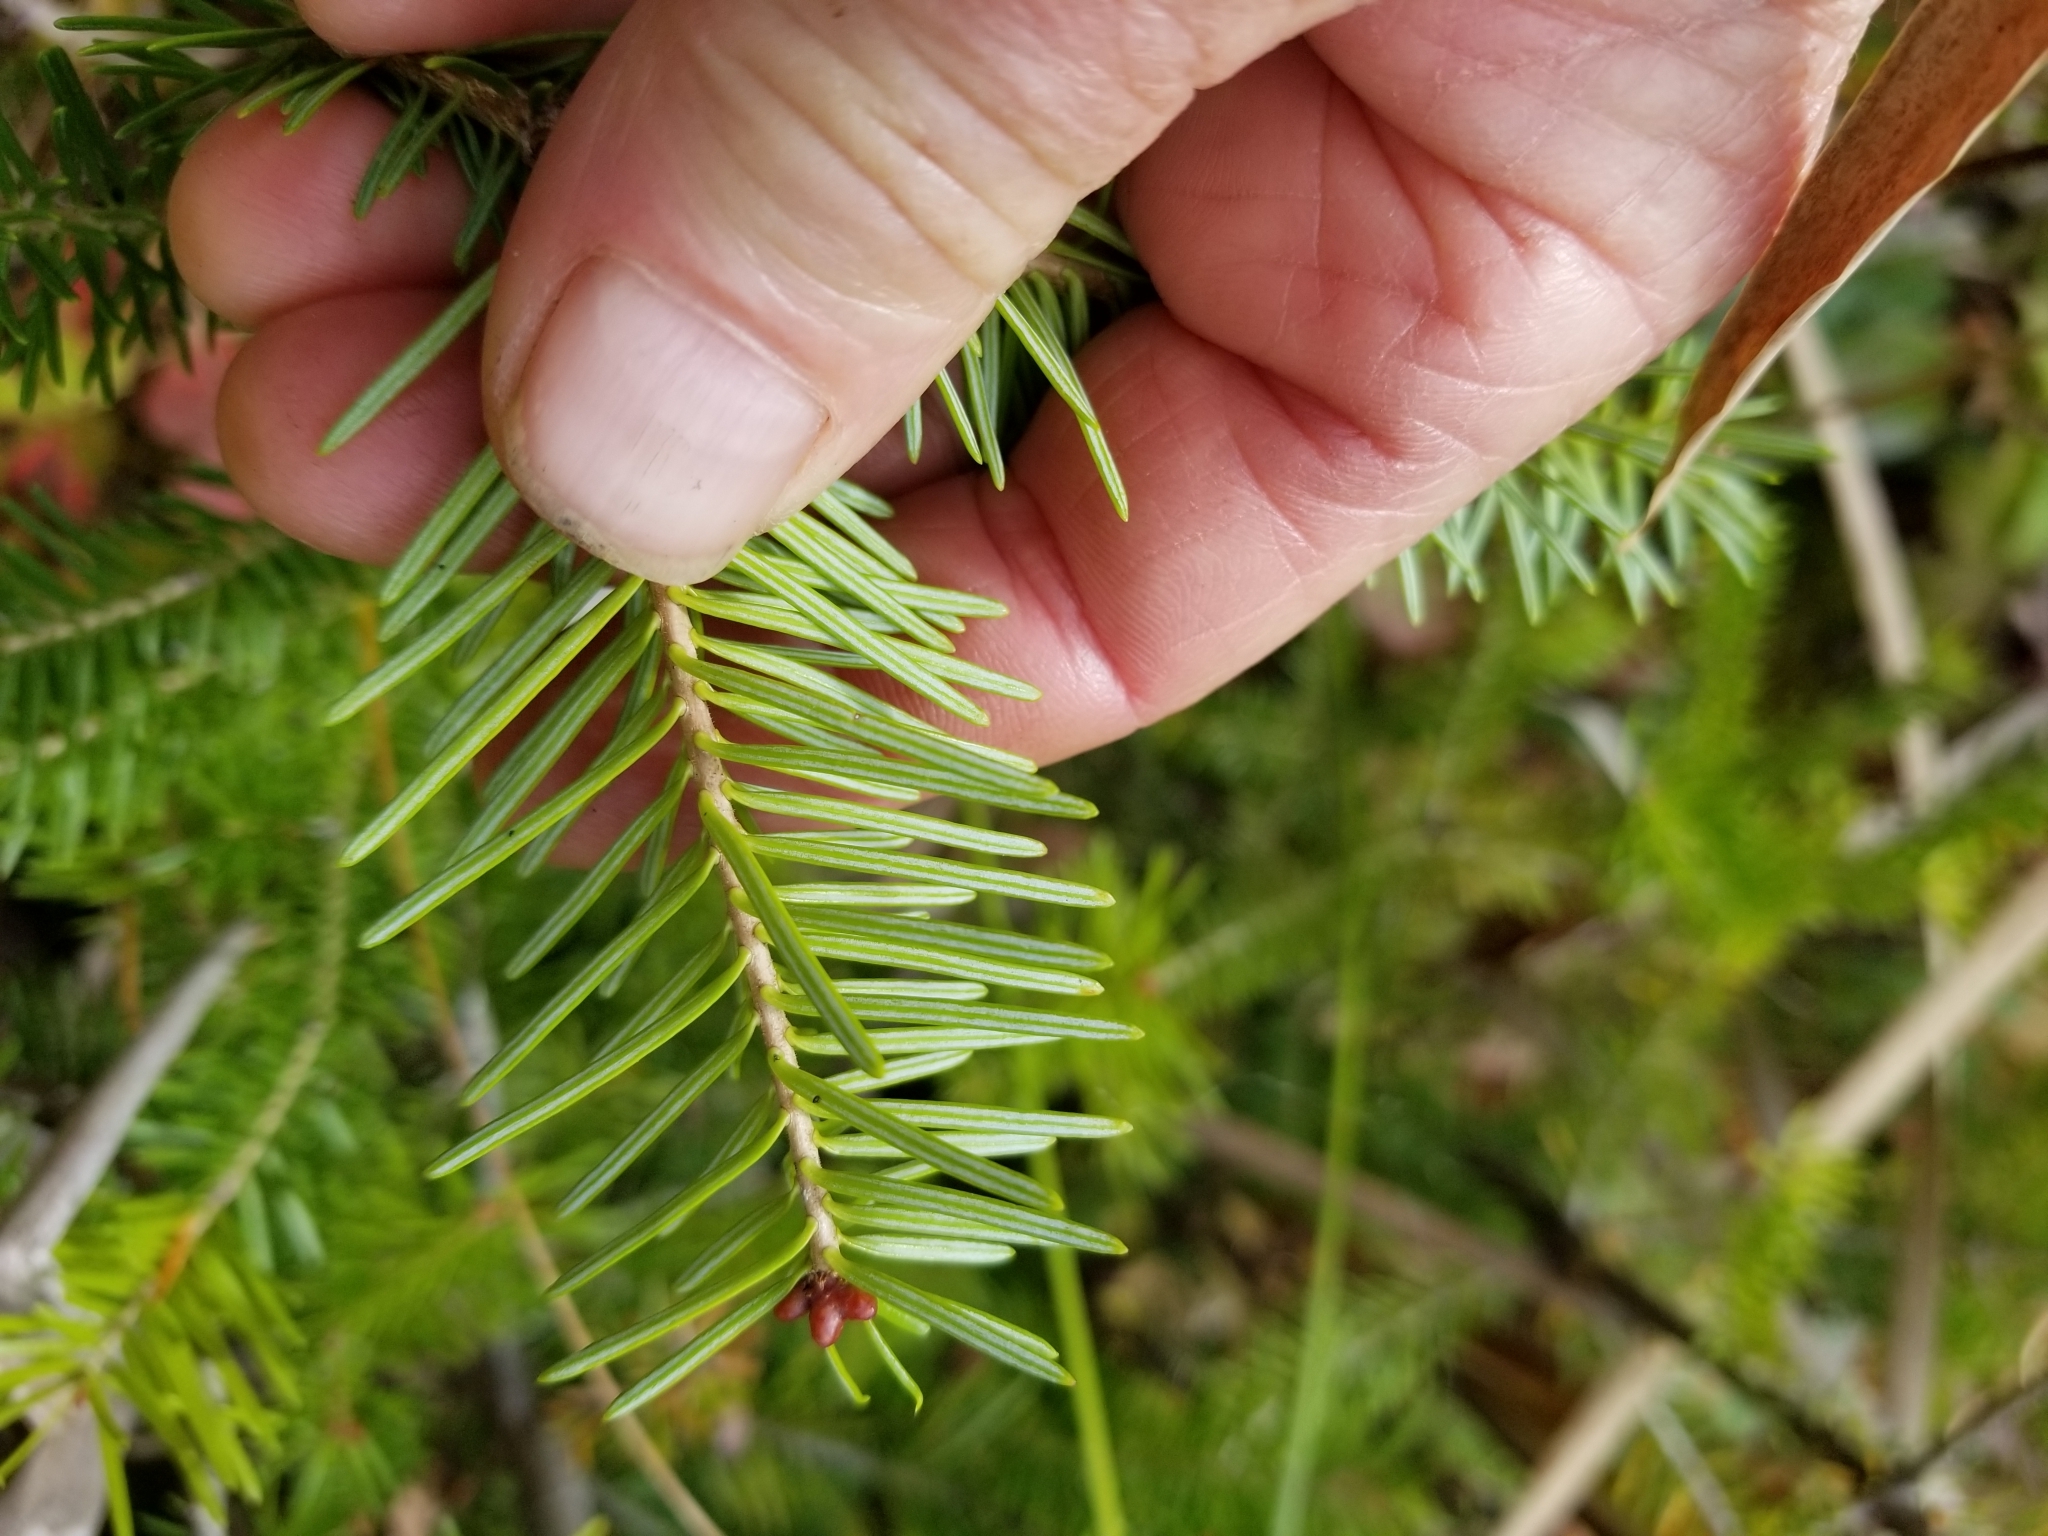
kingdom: Plantae
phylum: Tracheophyta
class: Pinopsida
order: Pinales
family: Pinaceae
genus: Abies
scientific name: Abies balsamea
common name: Balsam fir
